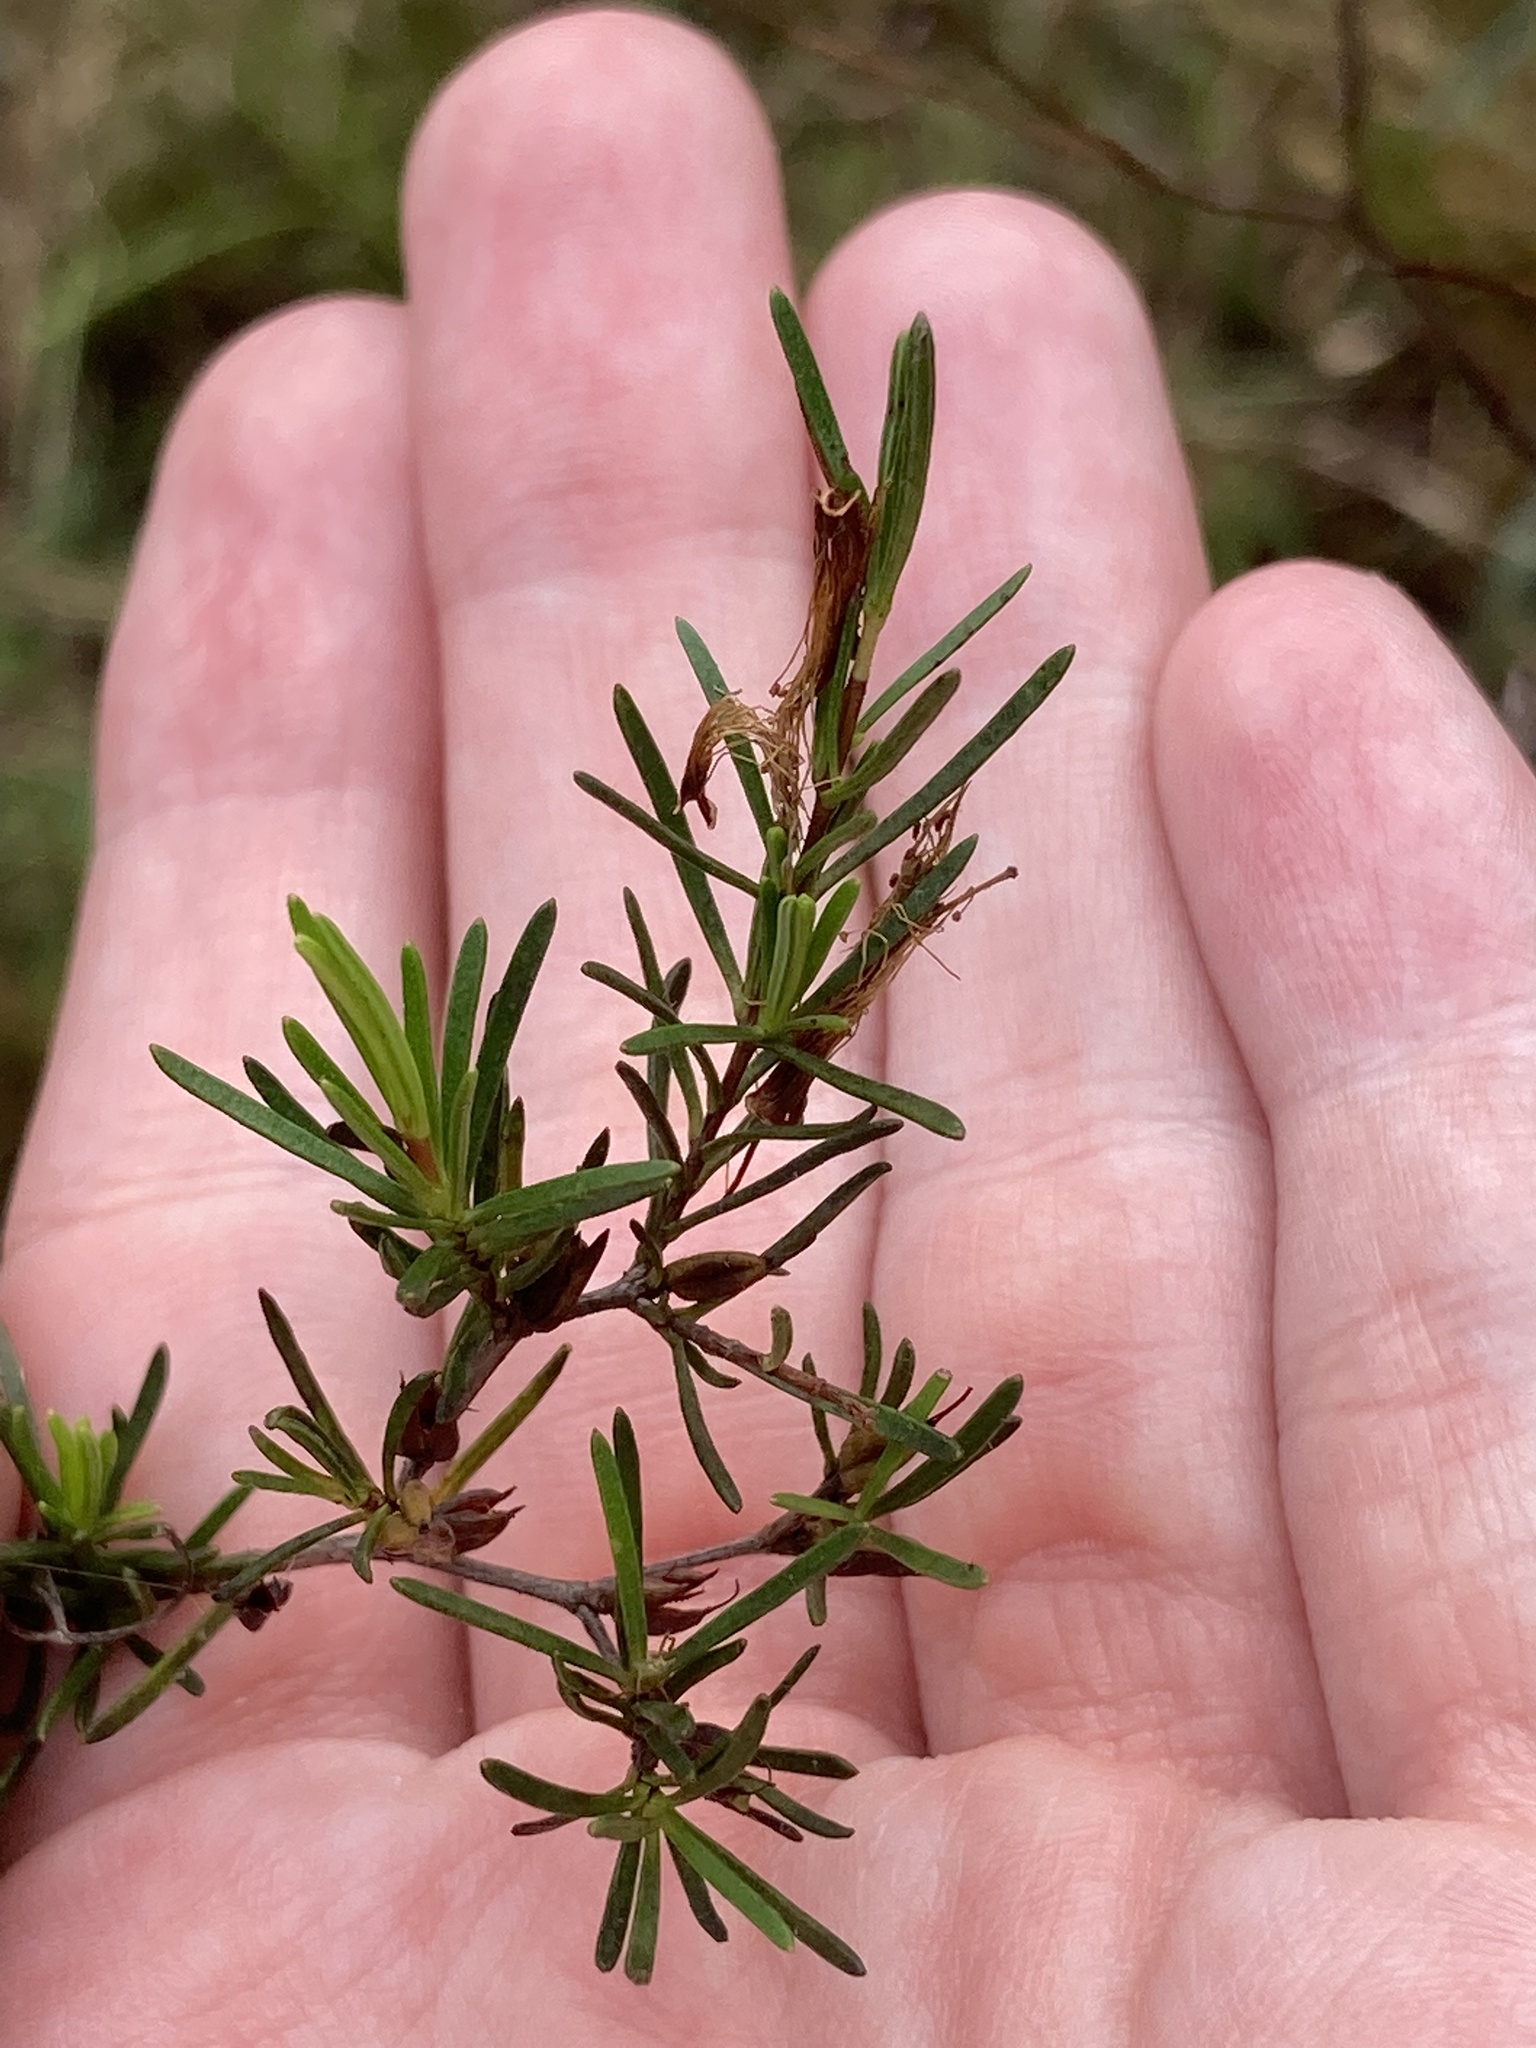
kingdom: Plantae
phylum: Tracheophyta
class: Magnoliopsida
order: Malpighiales
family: Hypericaceae
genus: Hypericum
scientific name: Hypericum fasciculatum
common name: Peelbark st. john's wort
